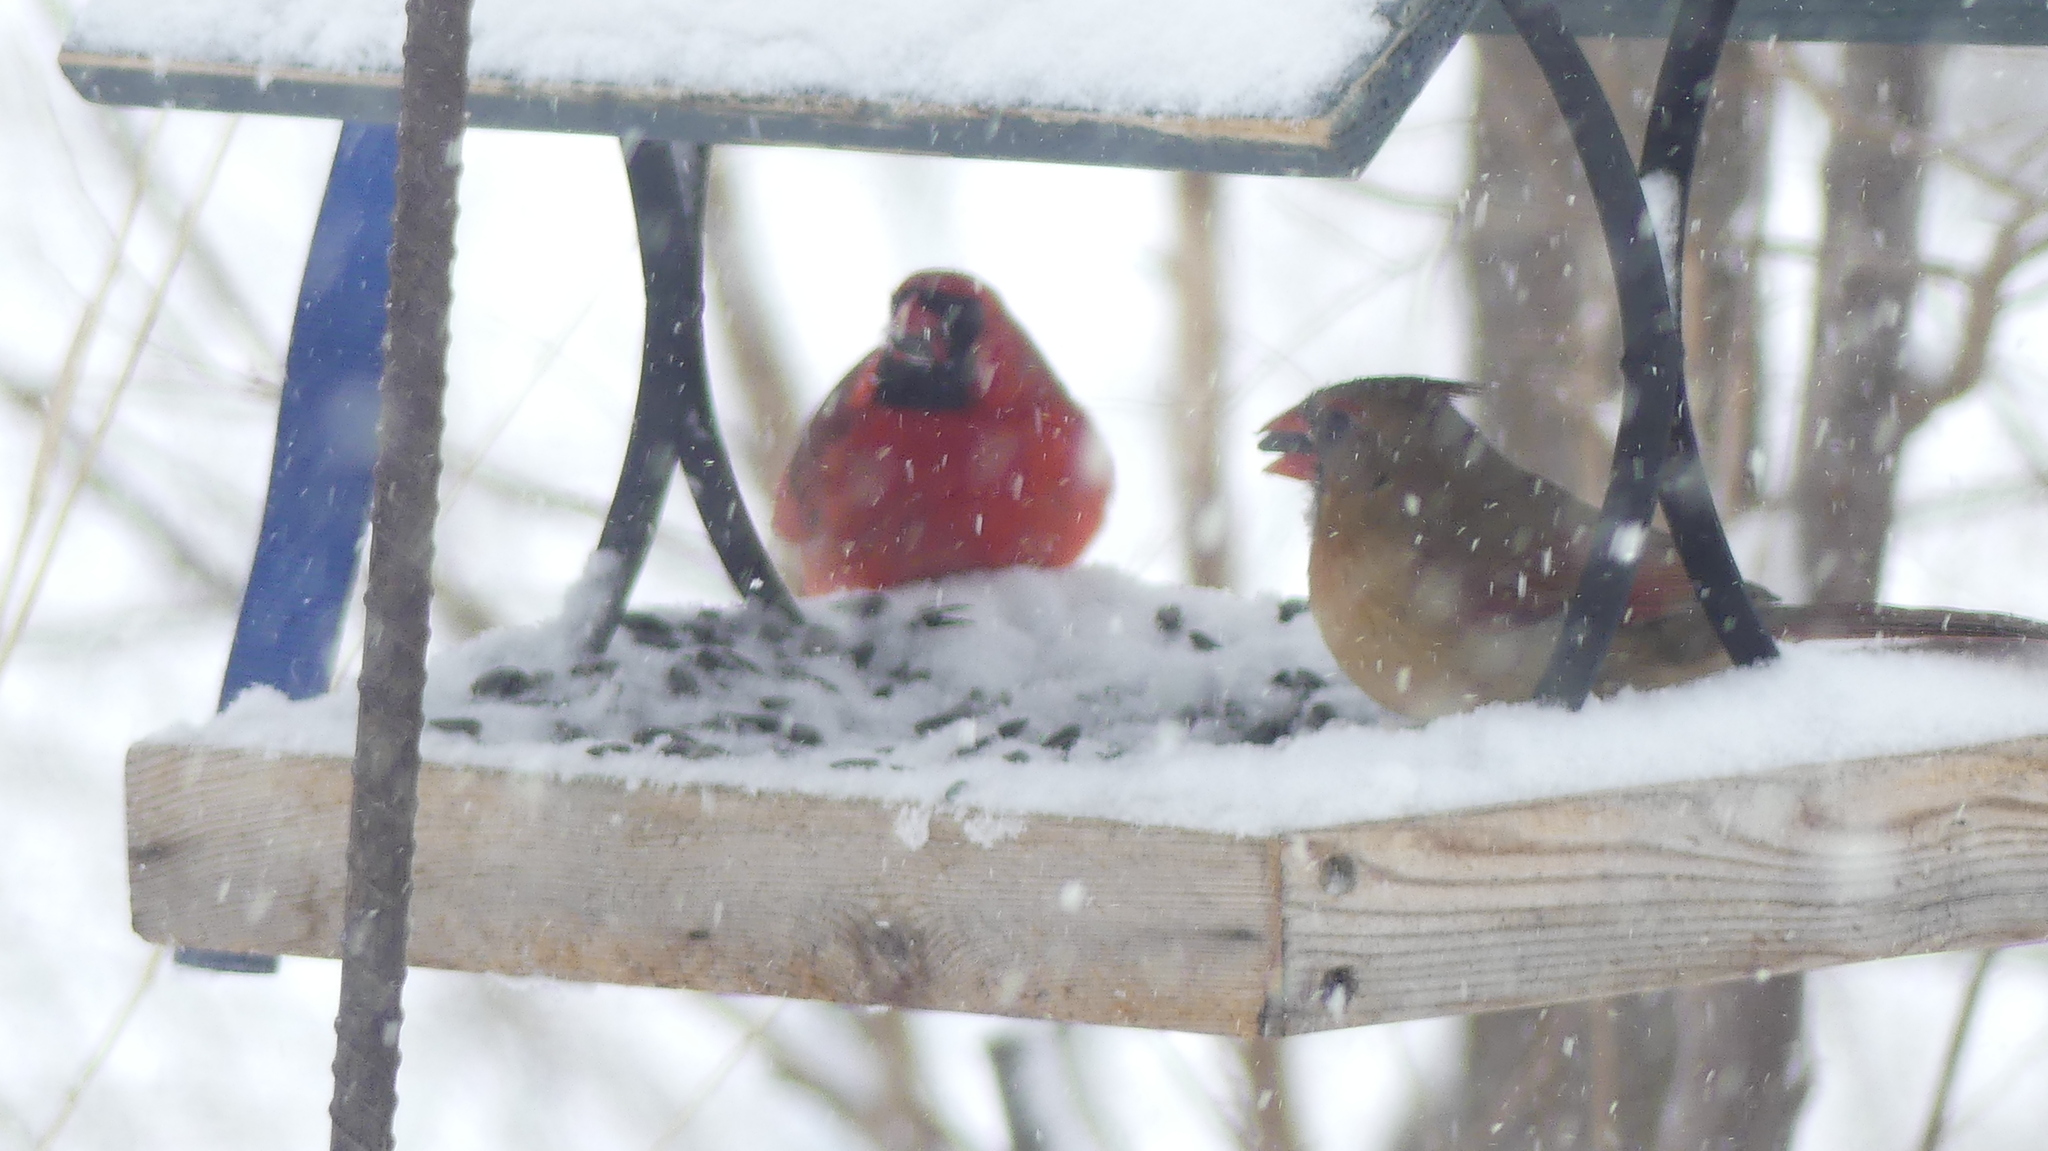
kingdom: Animalia
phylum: Chordata
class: Aves
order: Passeriformes
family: Cardinalidae
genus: Cardinalis
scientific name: Cardinalis cardinalis
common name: Northern cardinal
